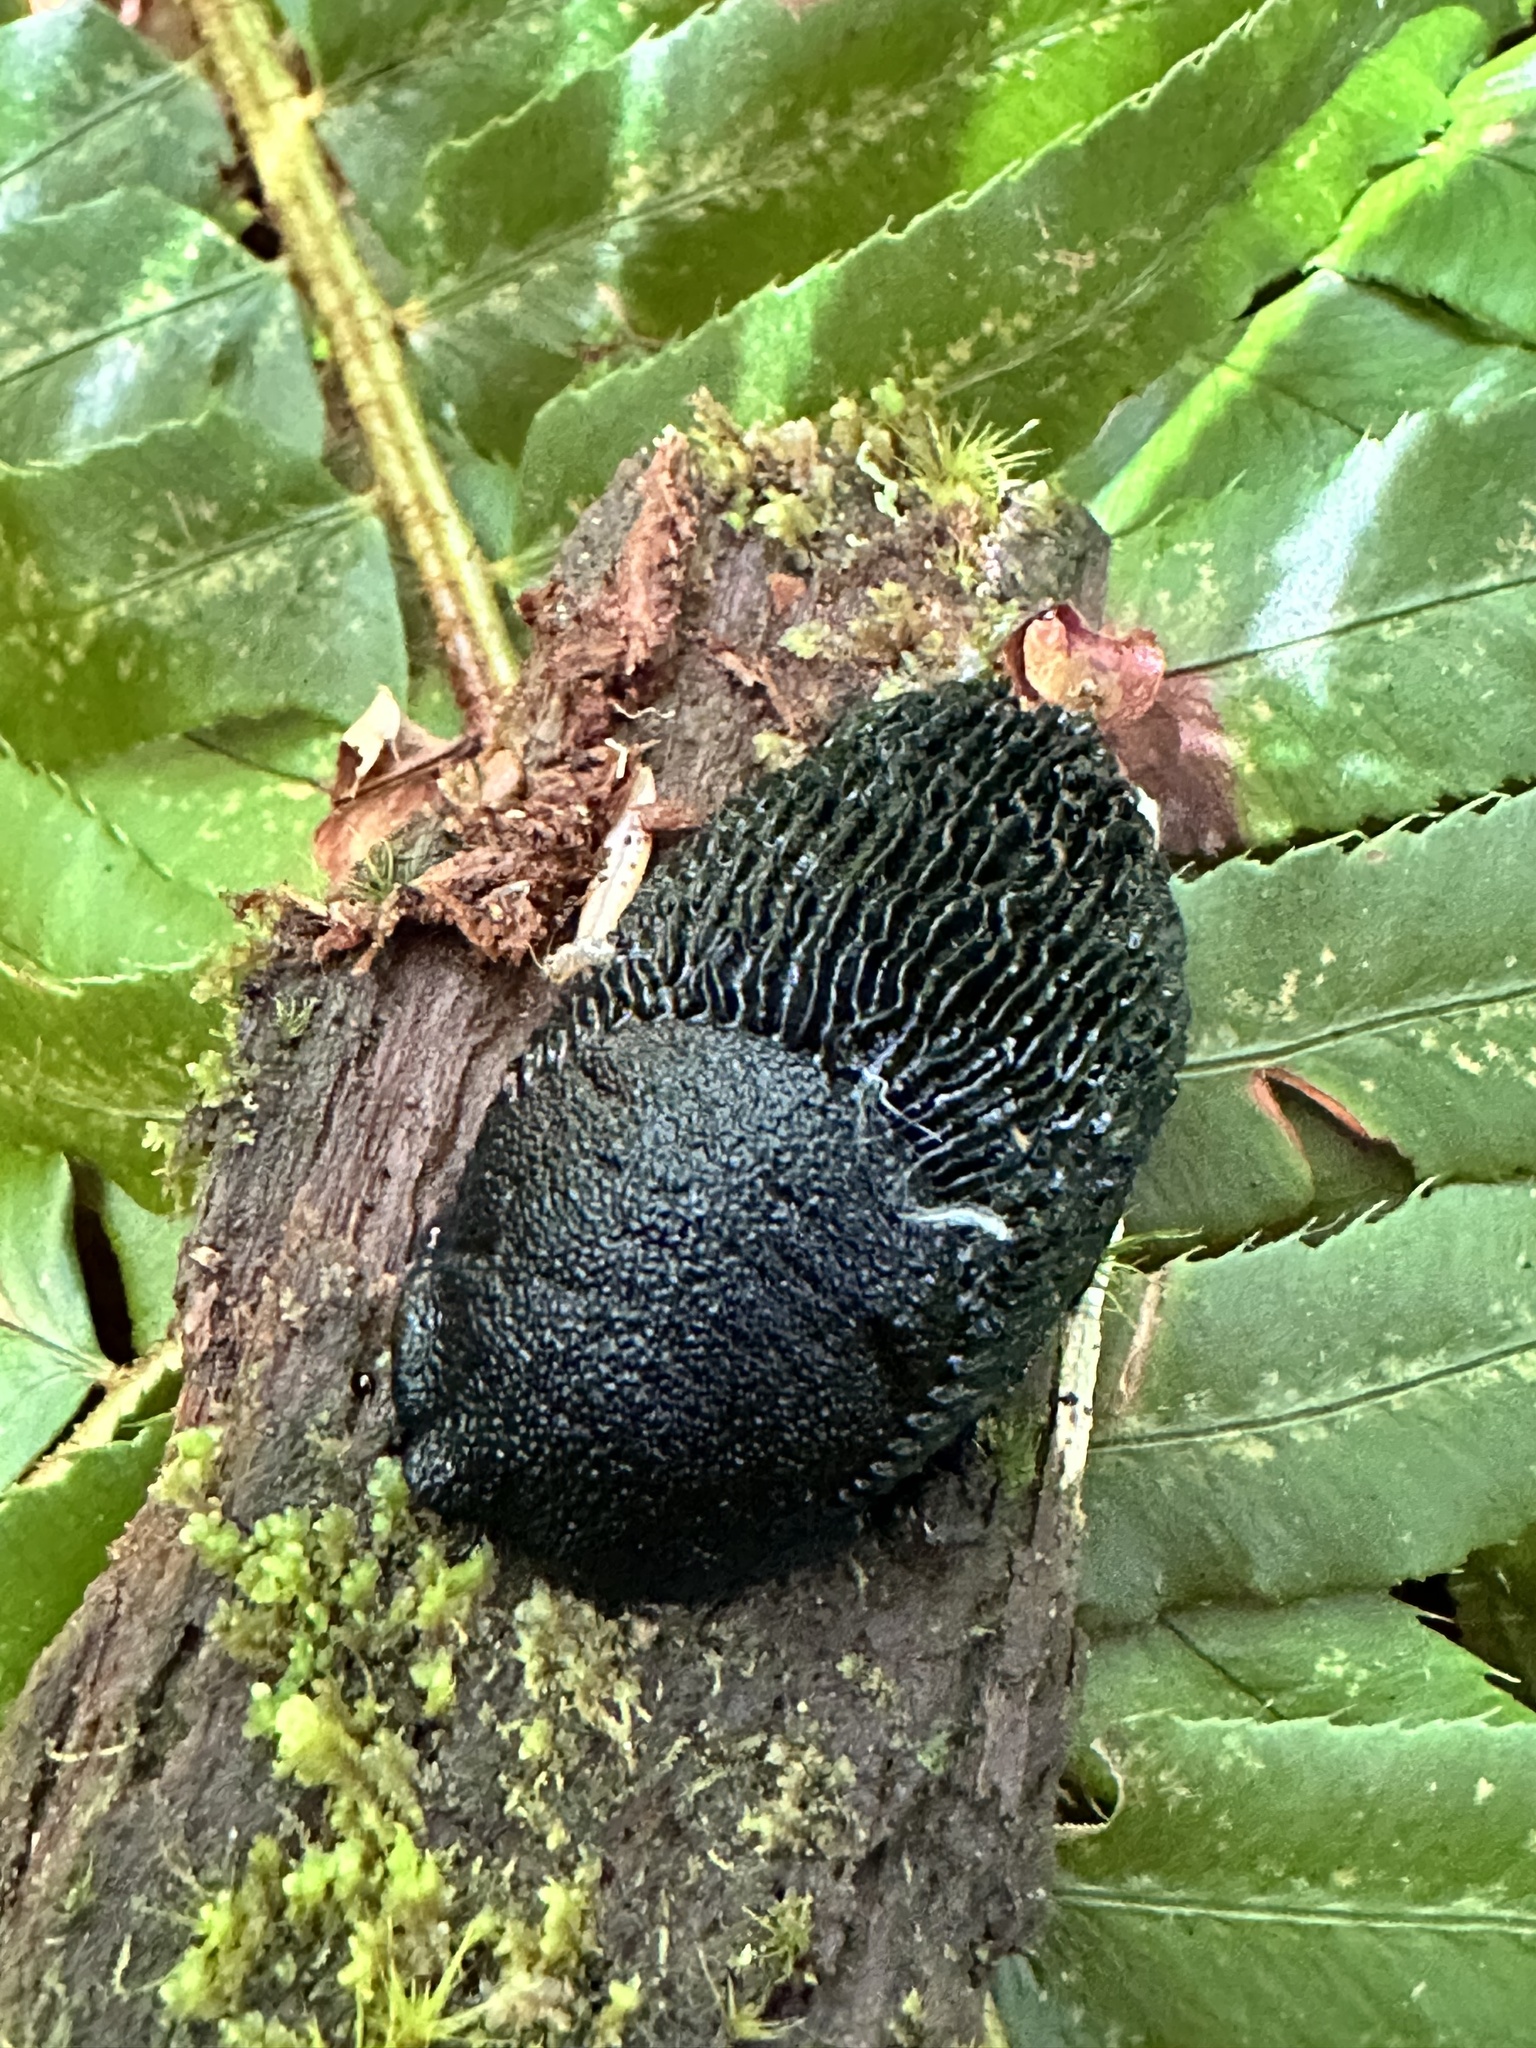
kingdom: Animalia
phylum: Mollusca
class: Gastropoda
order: Stylommatophora
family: Arionidae
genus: Arion
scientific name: Arion
